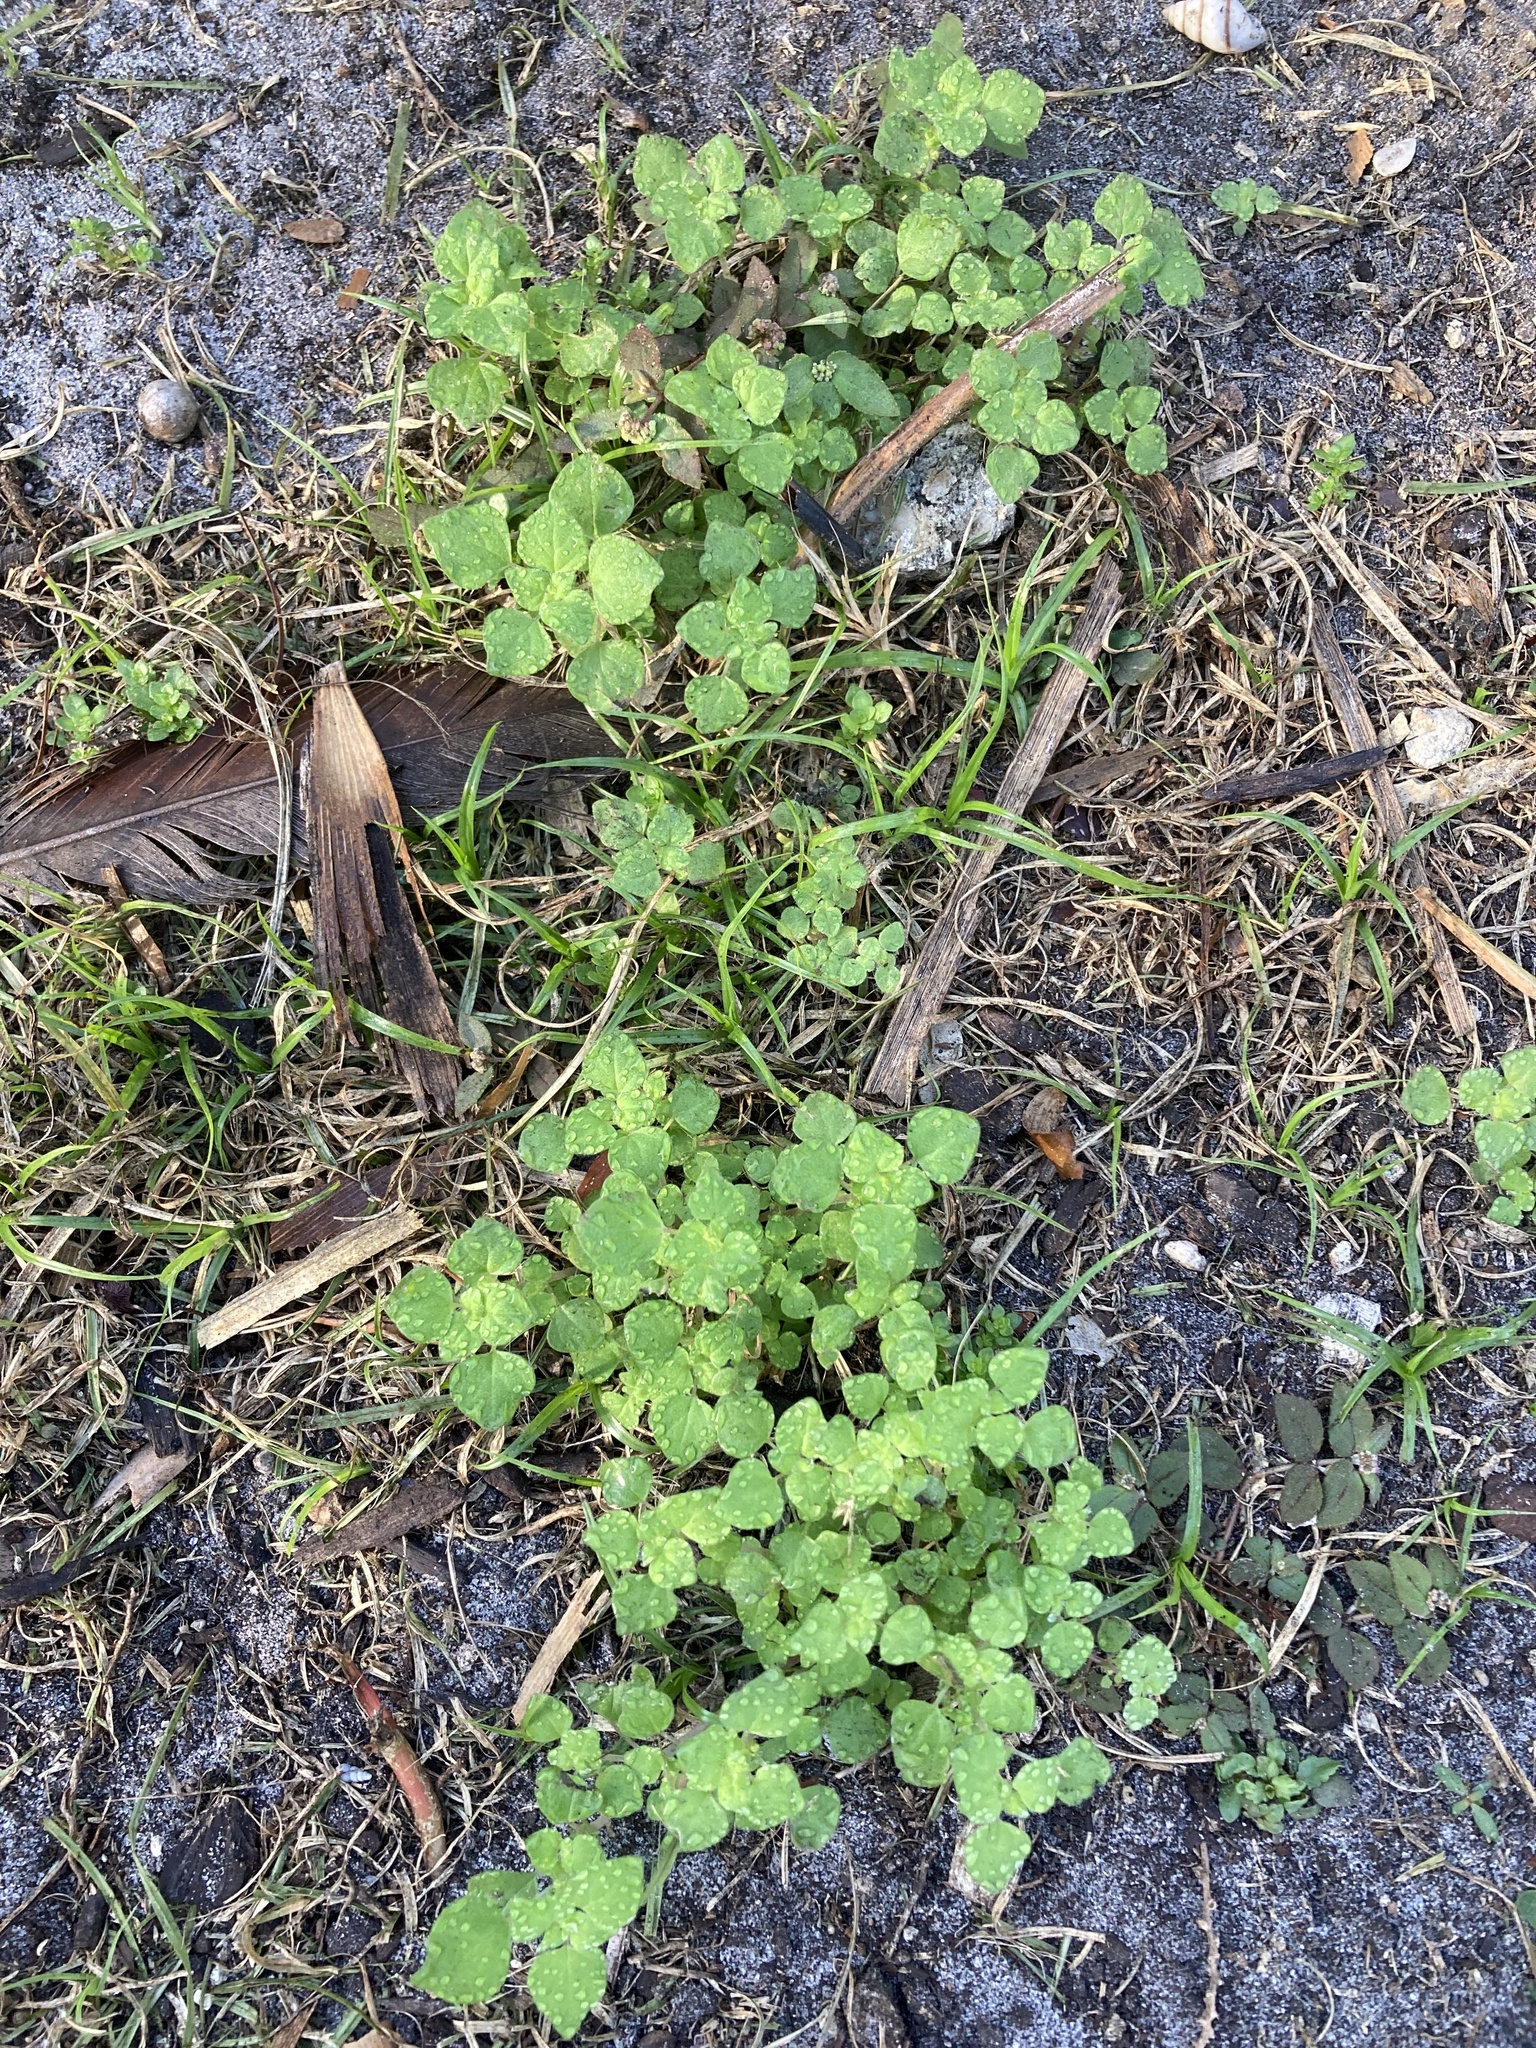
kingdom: Plantae
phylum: Tracheophyta
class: Magnoliopsida
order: Rosales
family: Urticaceae
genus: Parietaria
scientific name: Parietaria floridana
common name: Florida pellitory
